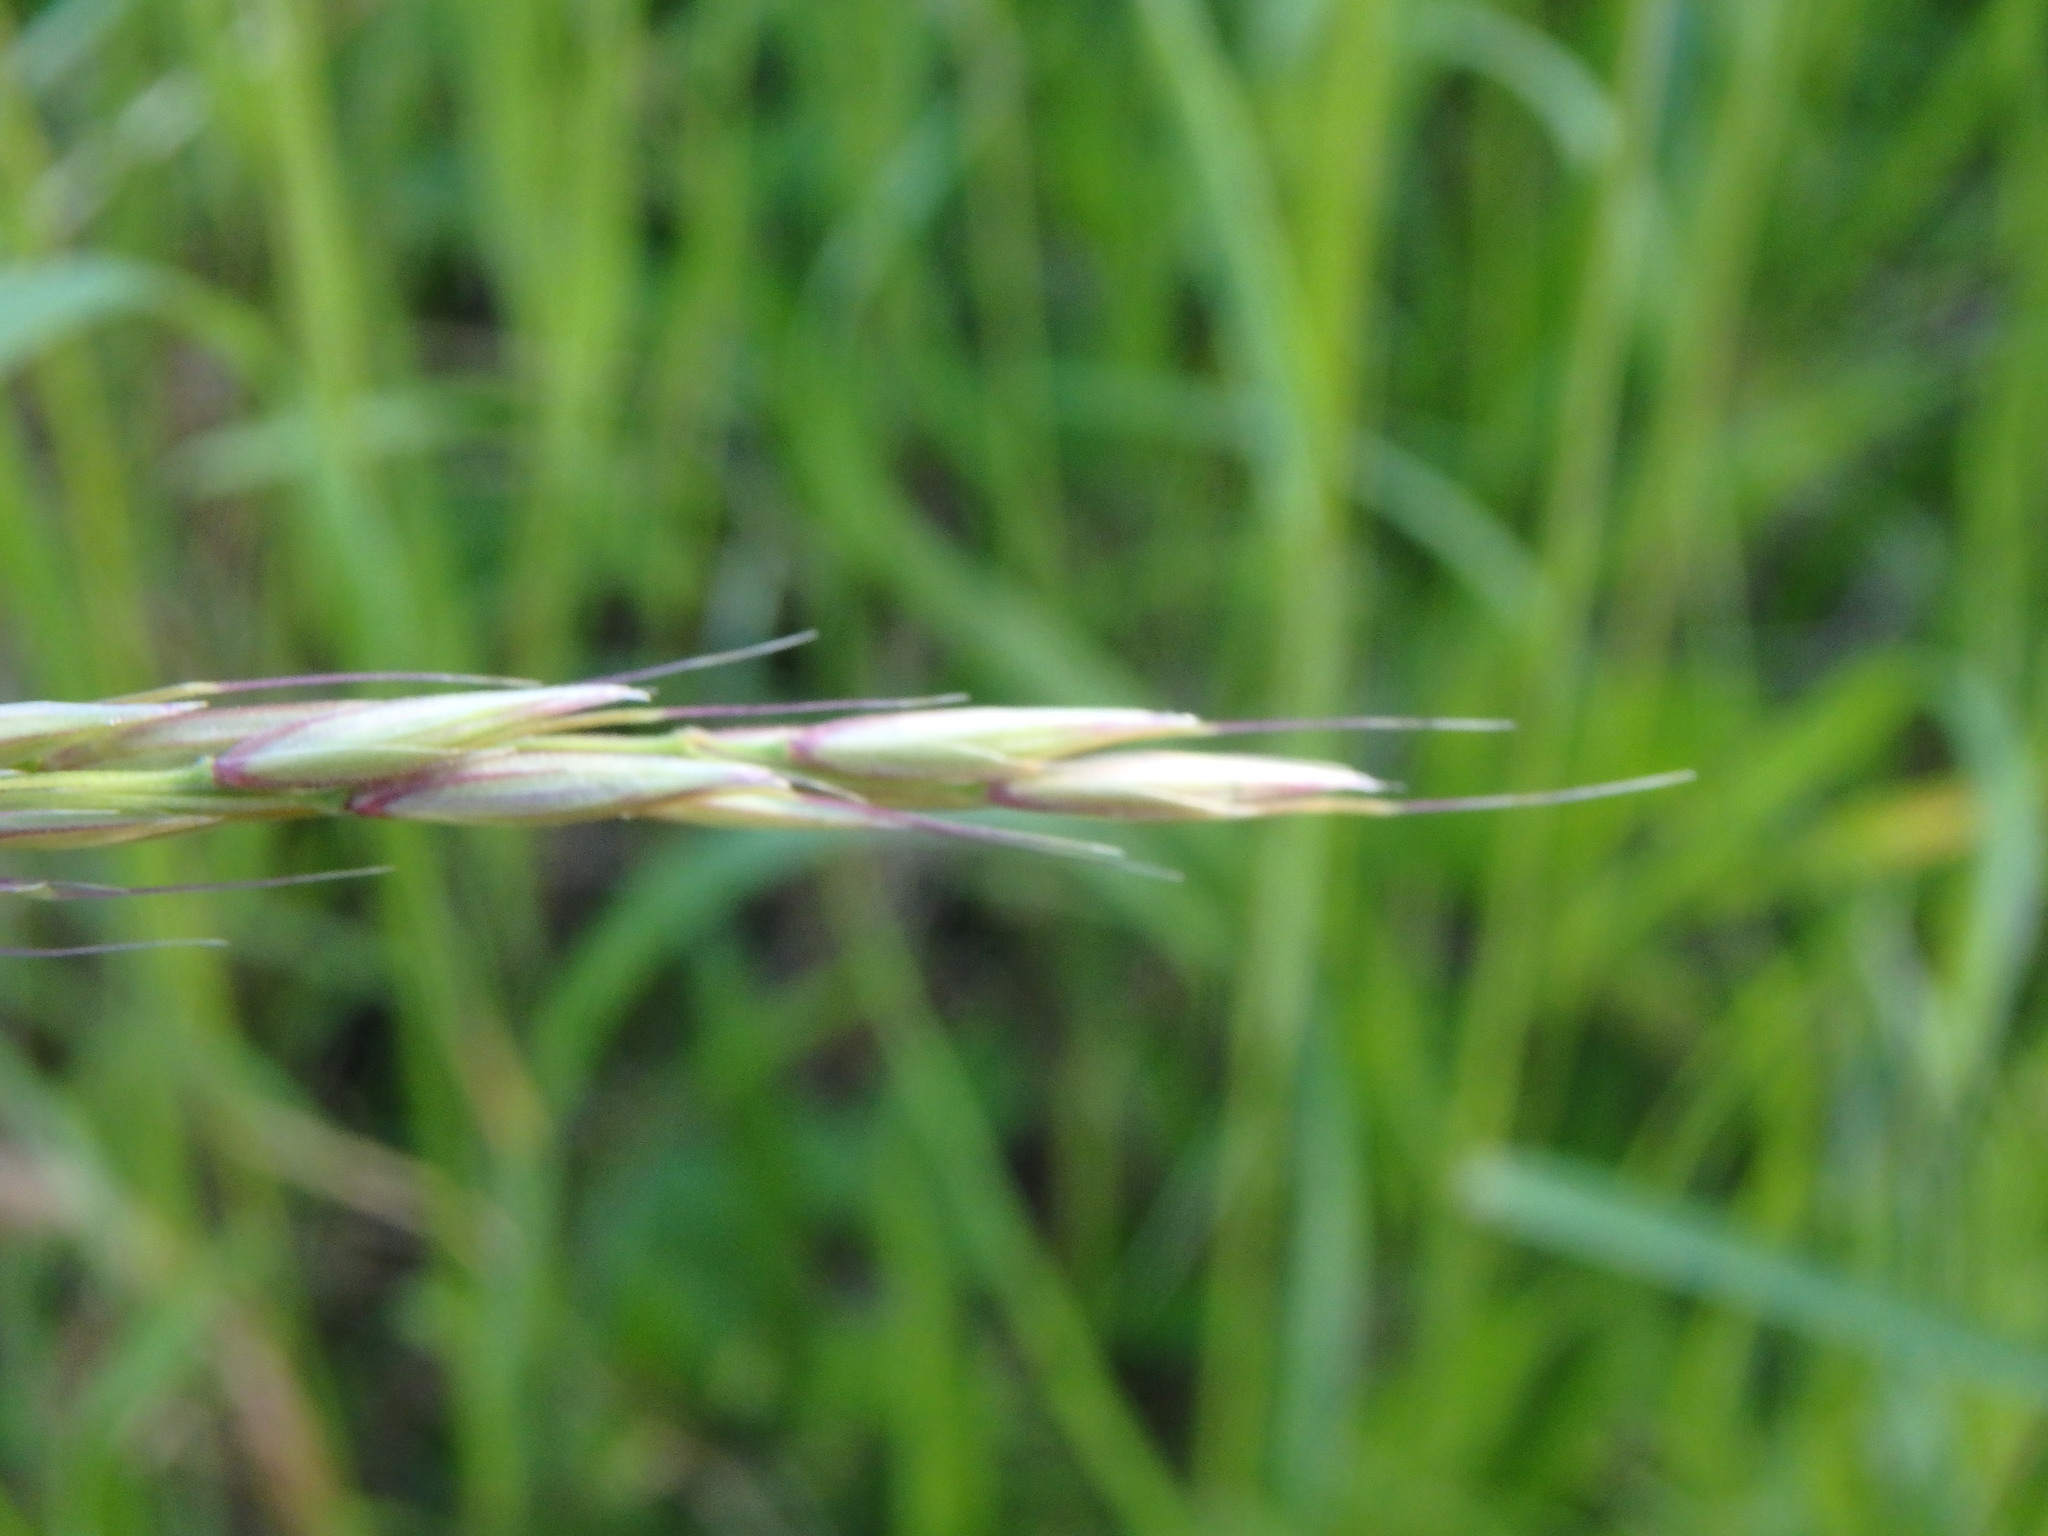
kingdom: Plantae
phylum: Tracheophyta
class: Liliopsida
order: Poales
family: Poaceae
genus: Arrhenatherum
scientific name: Arrhenatherum elatius
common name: Tall oatgrass
